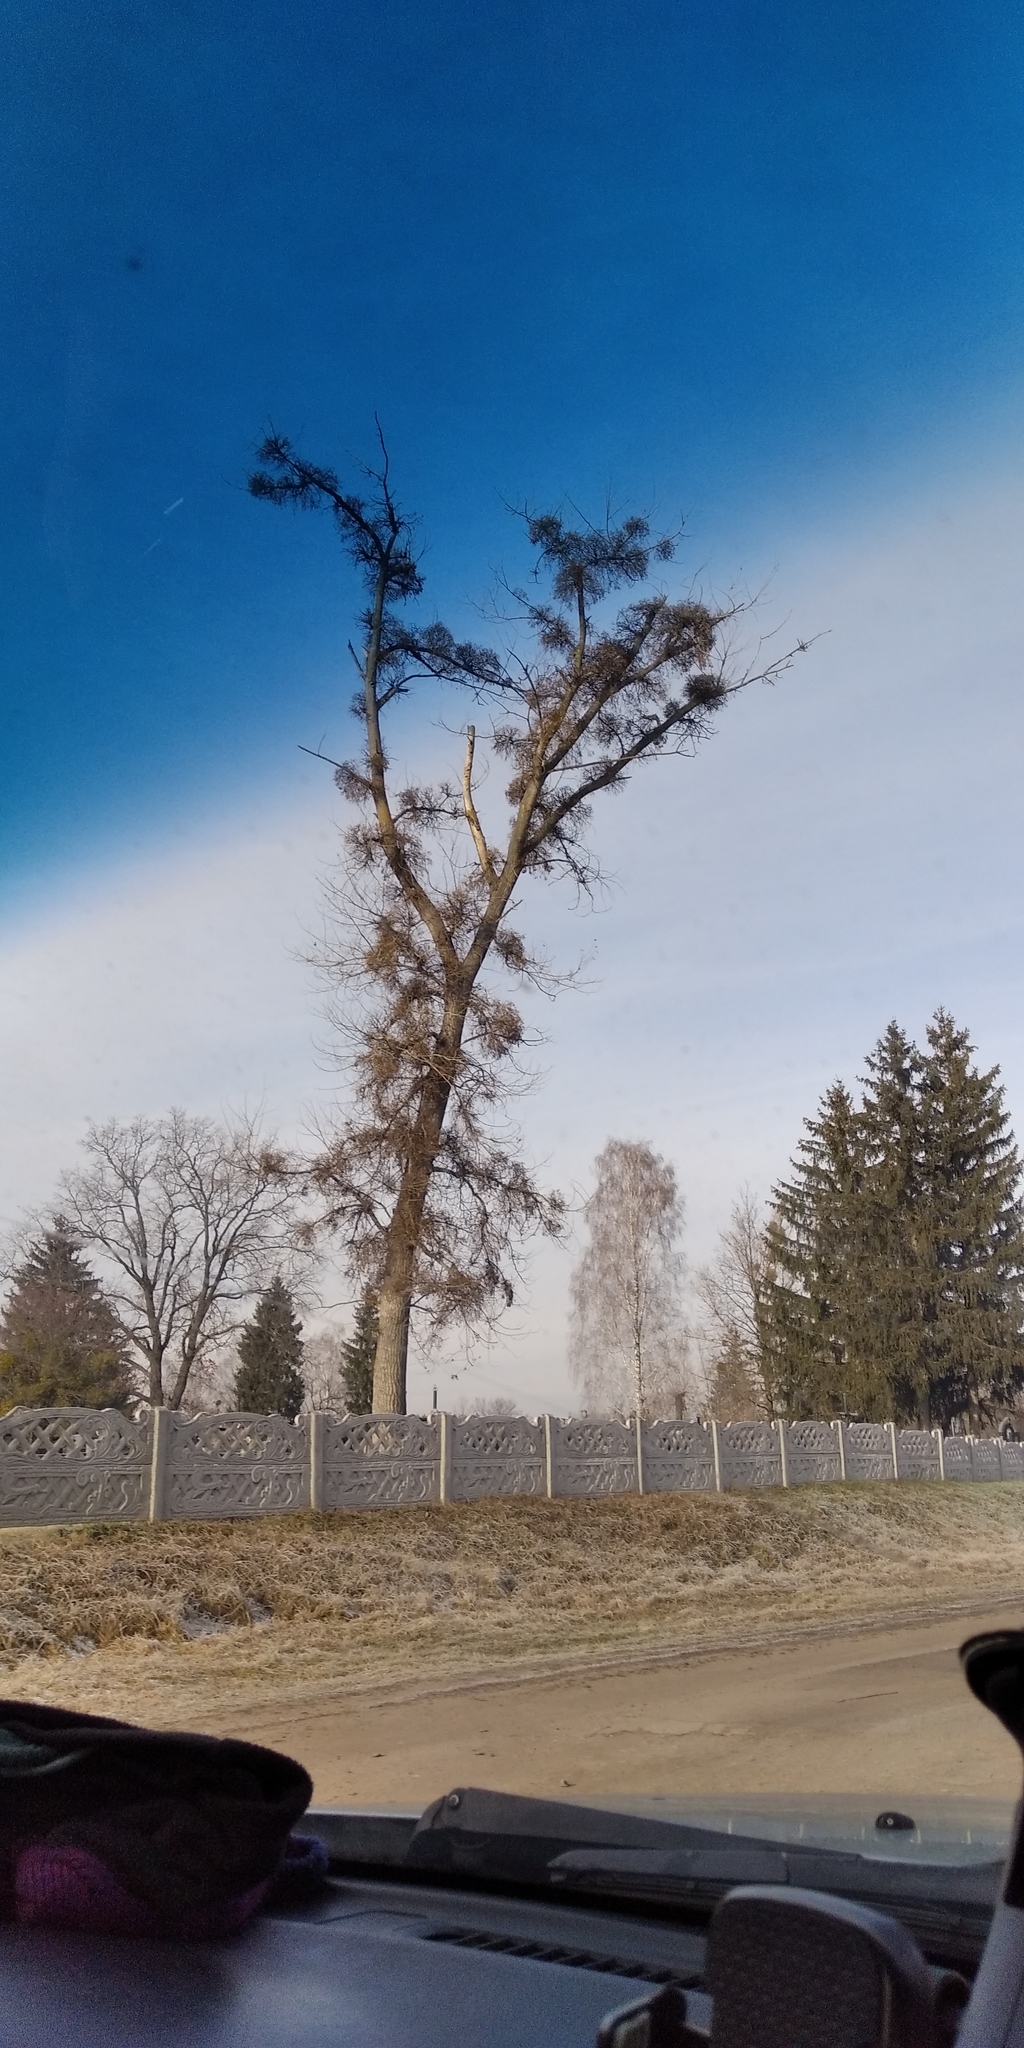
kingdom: Plantae
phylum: Tracheophyta
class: Magnoliopsida
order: Santalales
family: Viscaceae
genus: Viscum
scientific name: Viscum album
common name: Mistletoe
